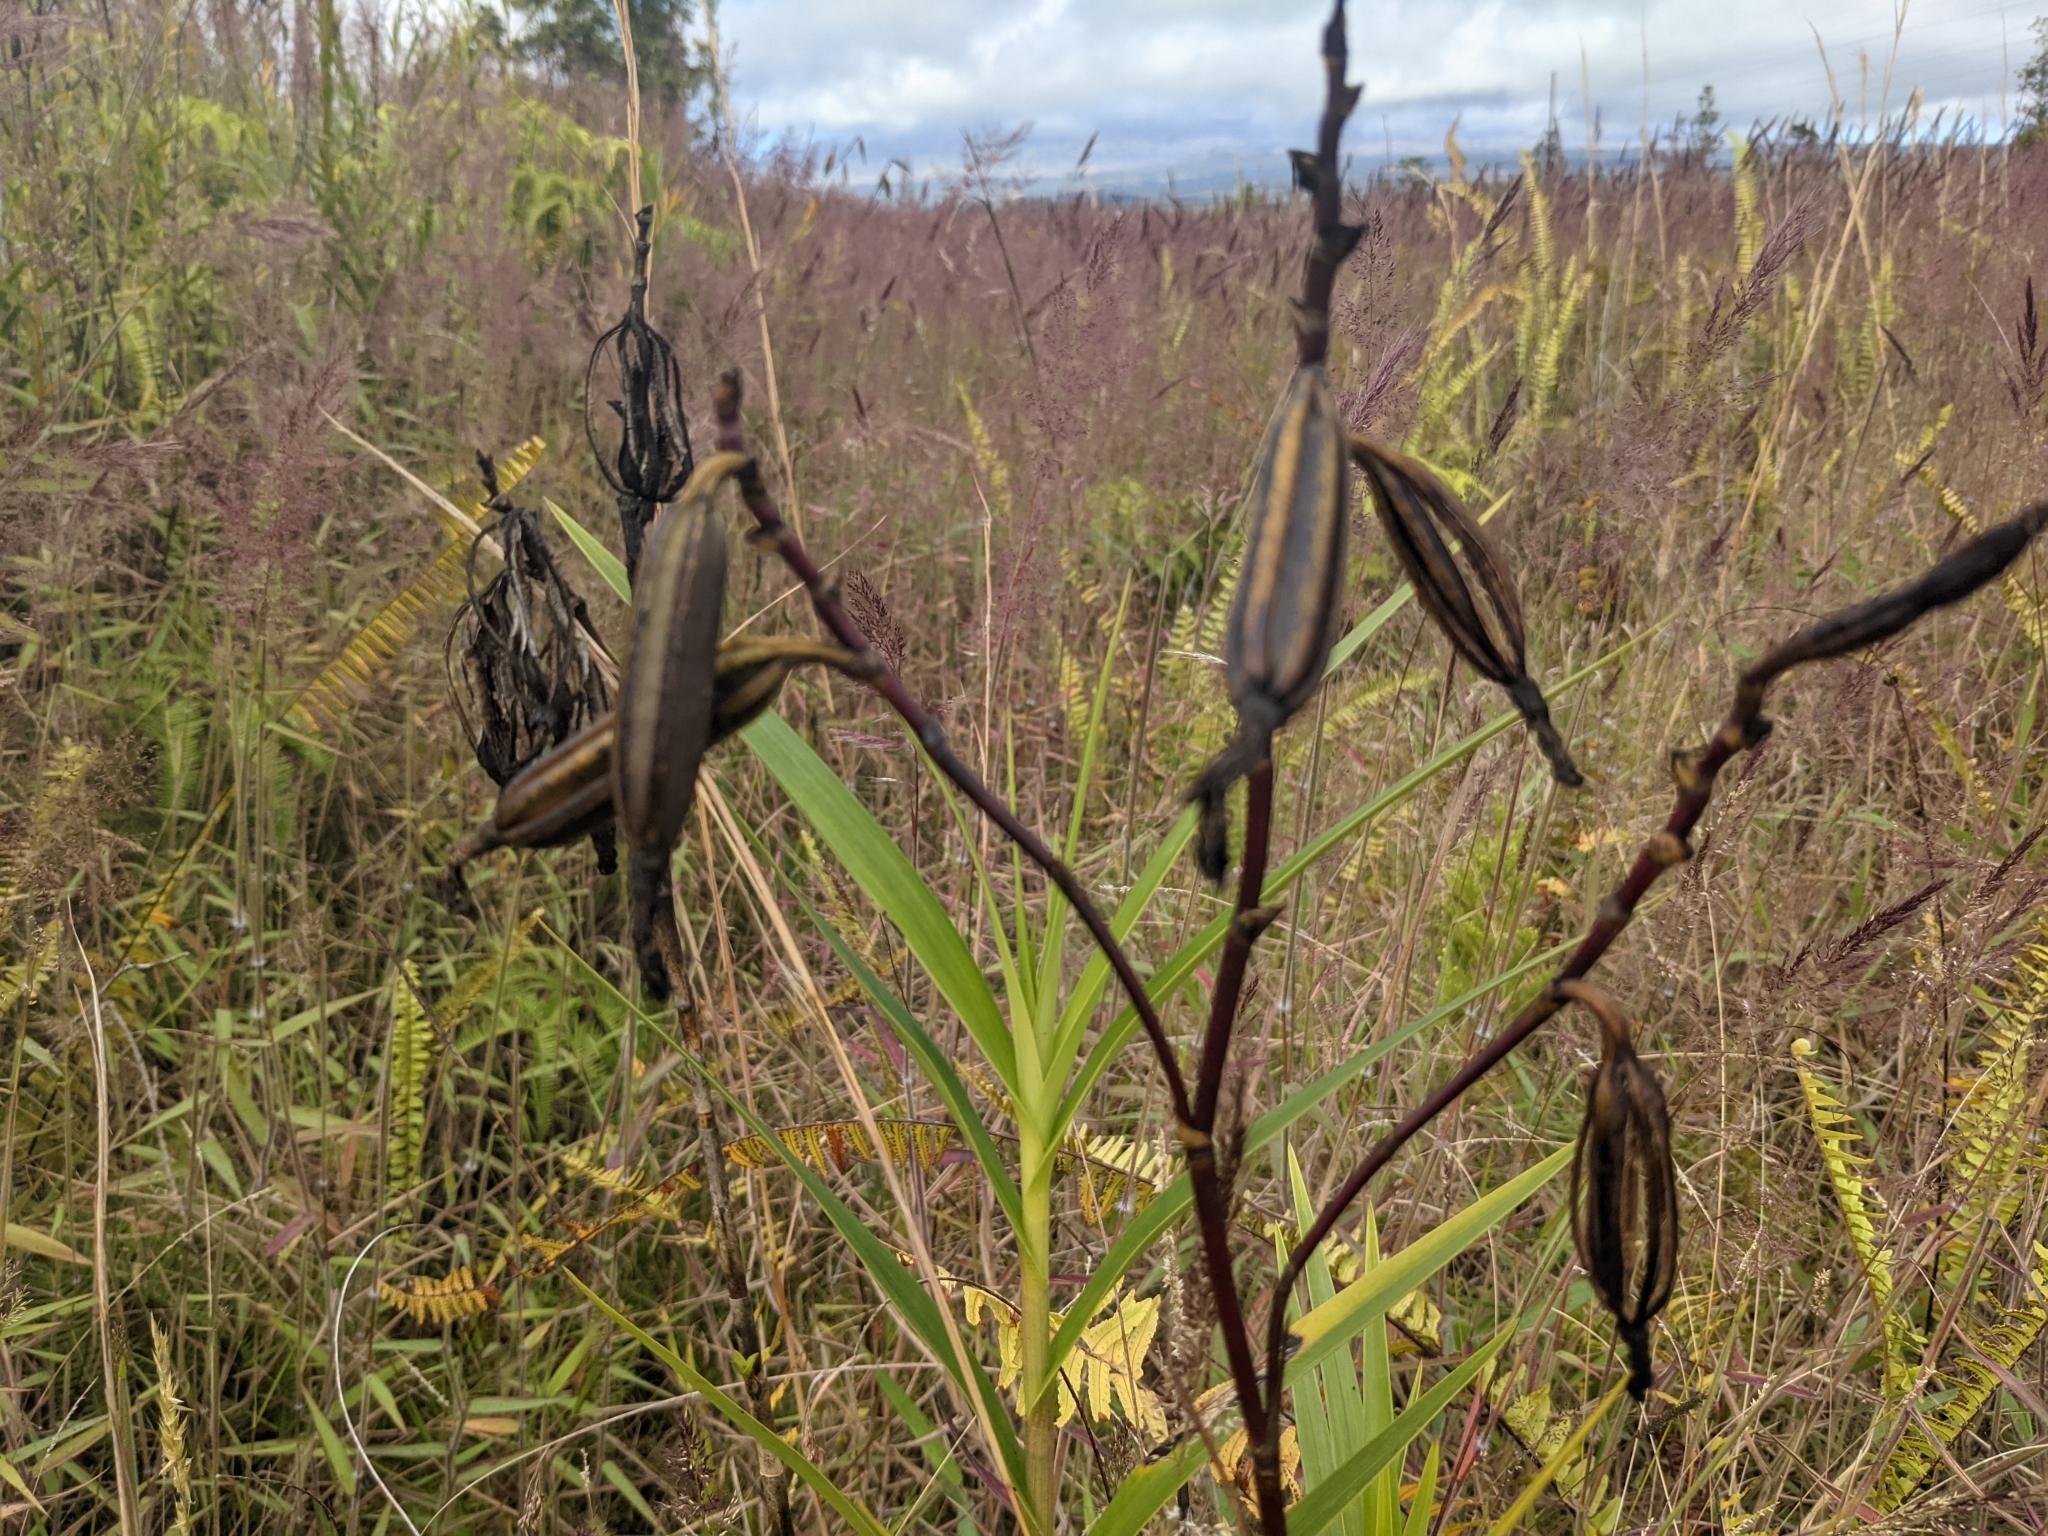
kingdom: Plantae
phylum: Tracheophyta
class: Liliopsida
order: Asparagales
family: Orchidaceae
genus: Arundina
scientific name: Arundina graminifolia
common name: Bamboo orchid
